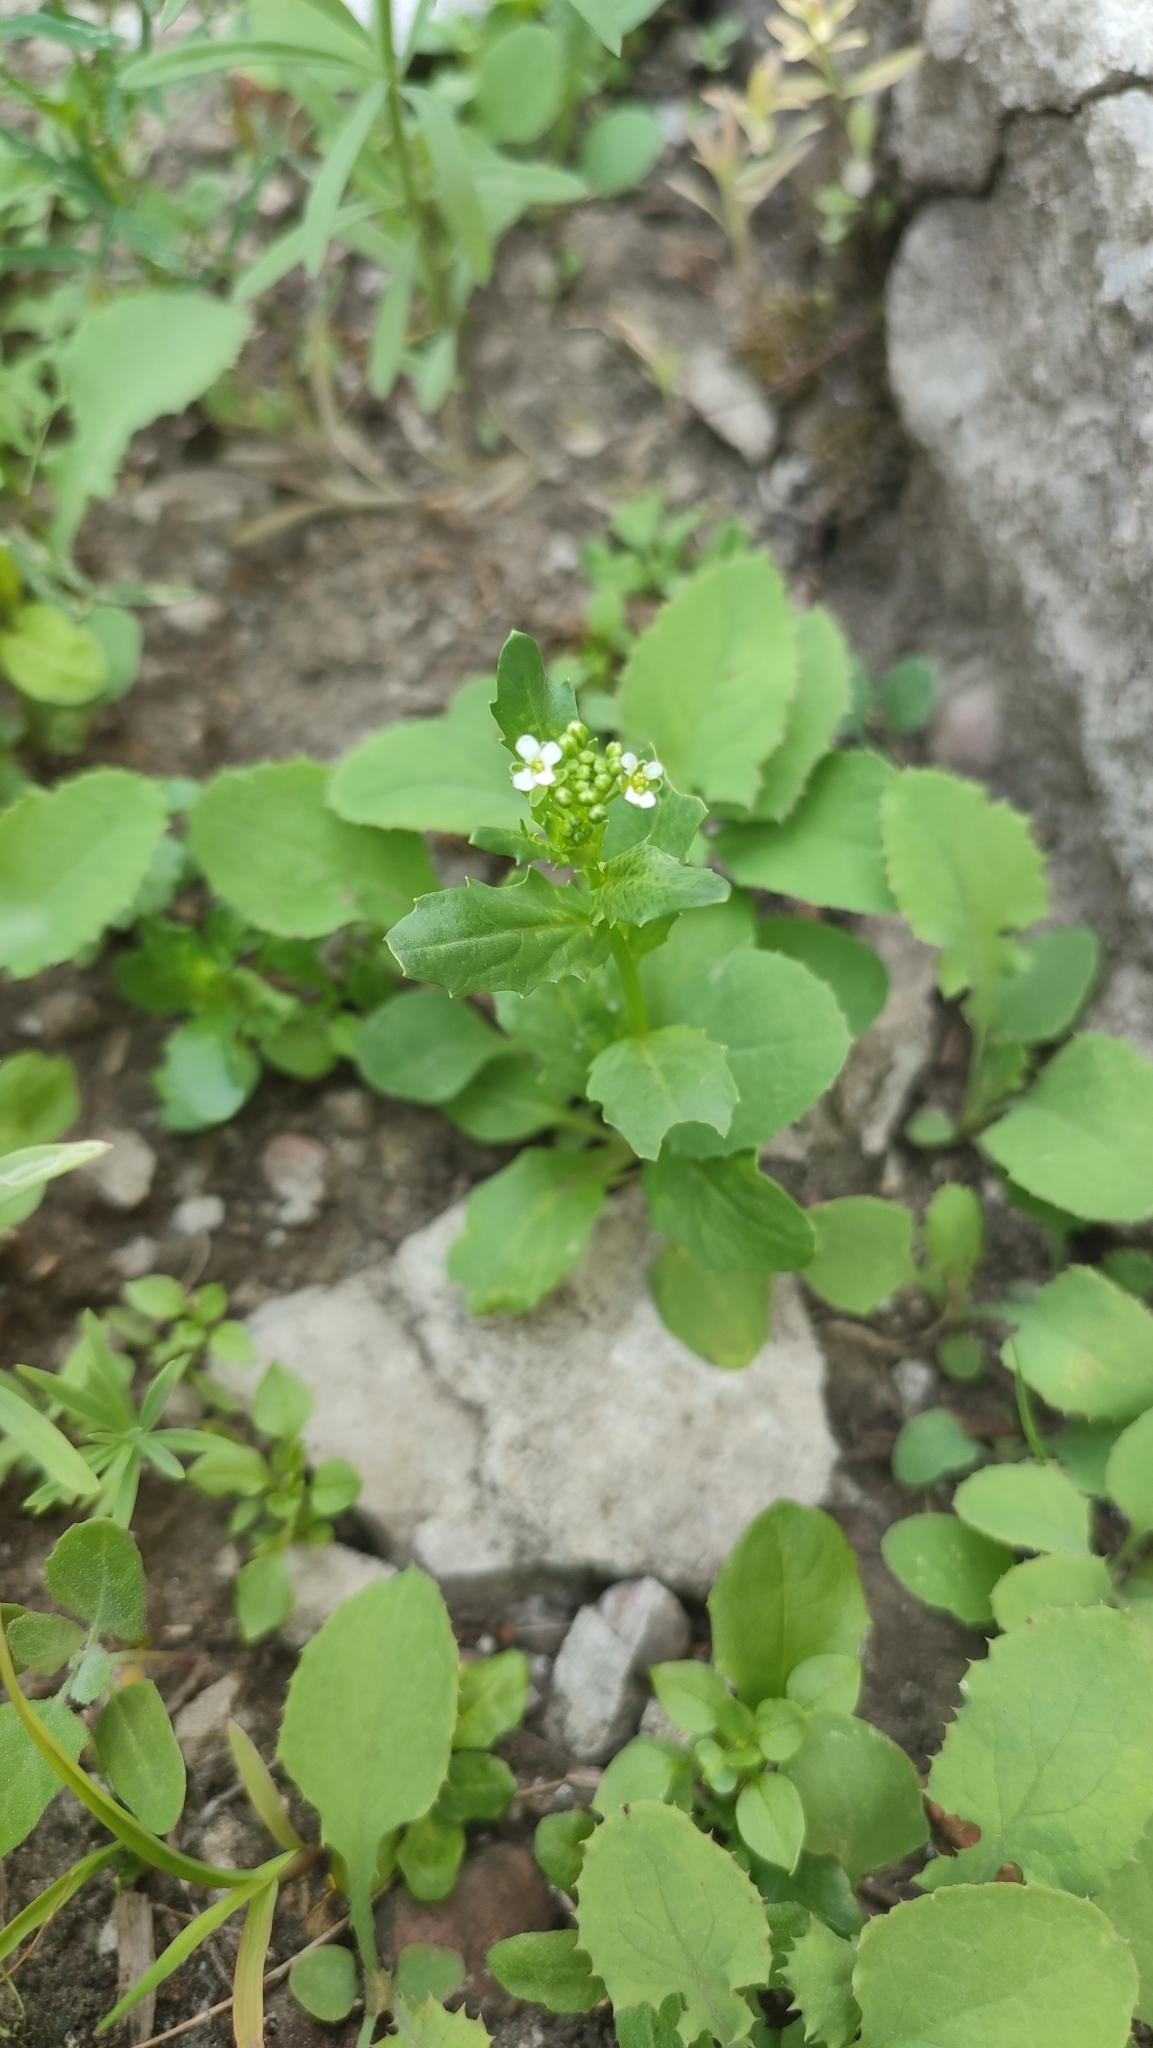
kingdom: Plantae
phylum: Tracheophyta
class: Magnoliopsida
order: Brassicales
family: Brassicaceae
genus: Thlaspi
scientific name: Thlaspi arvense
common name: Field pennycress
